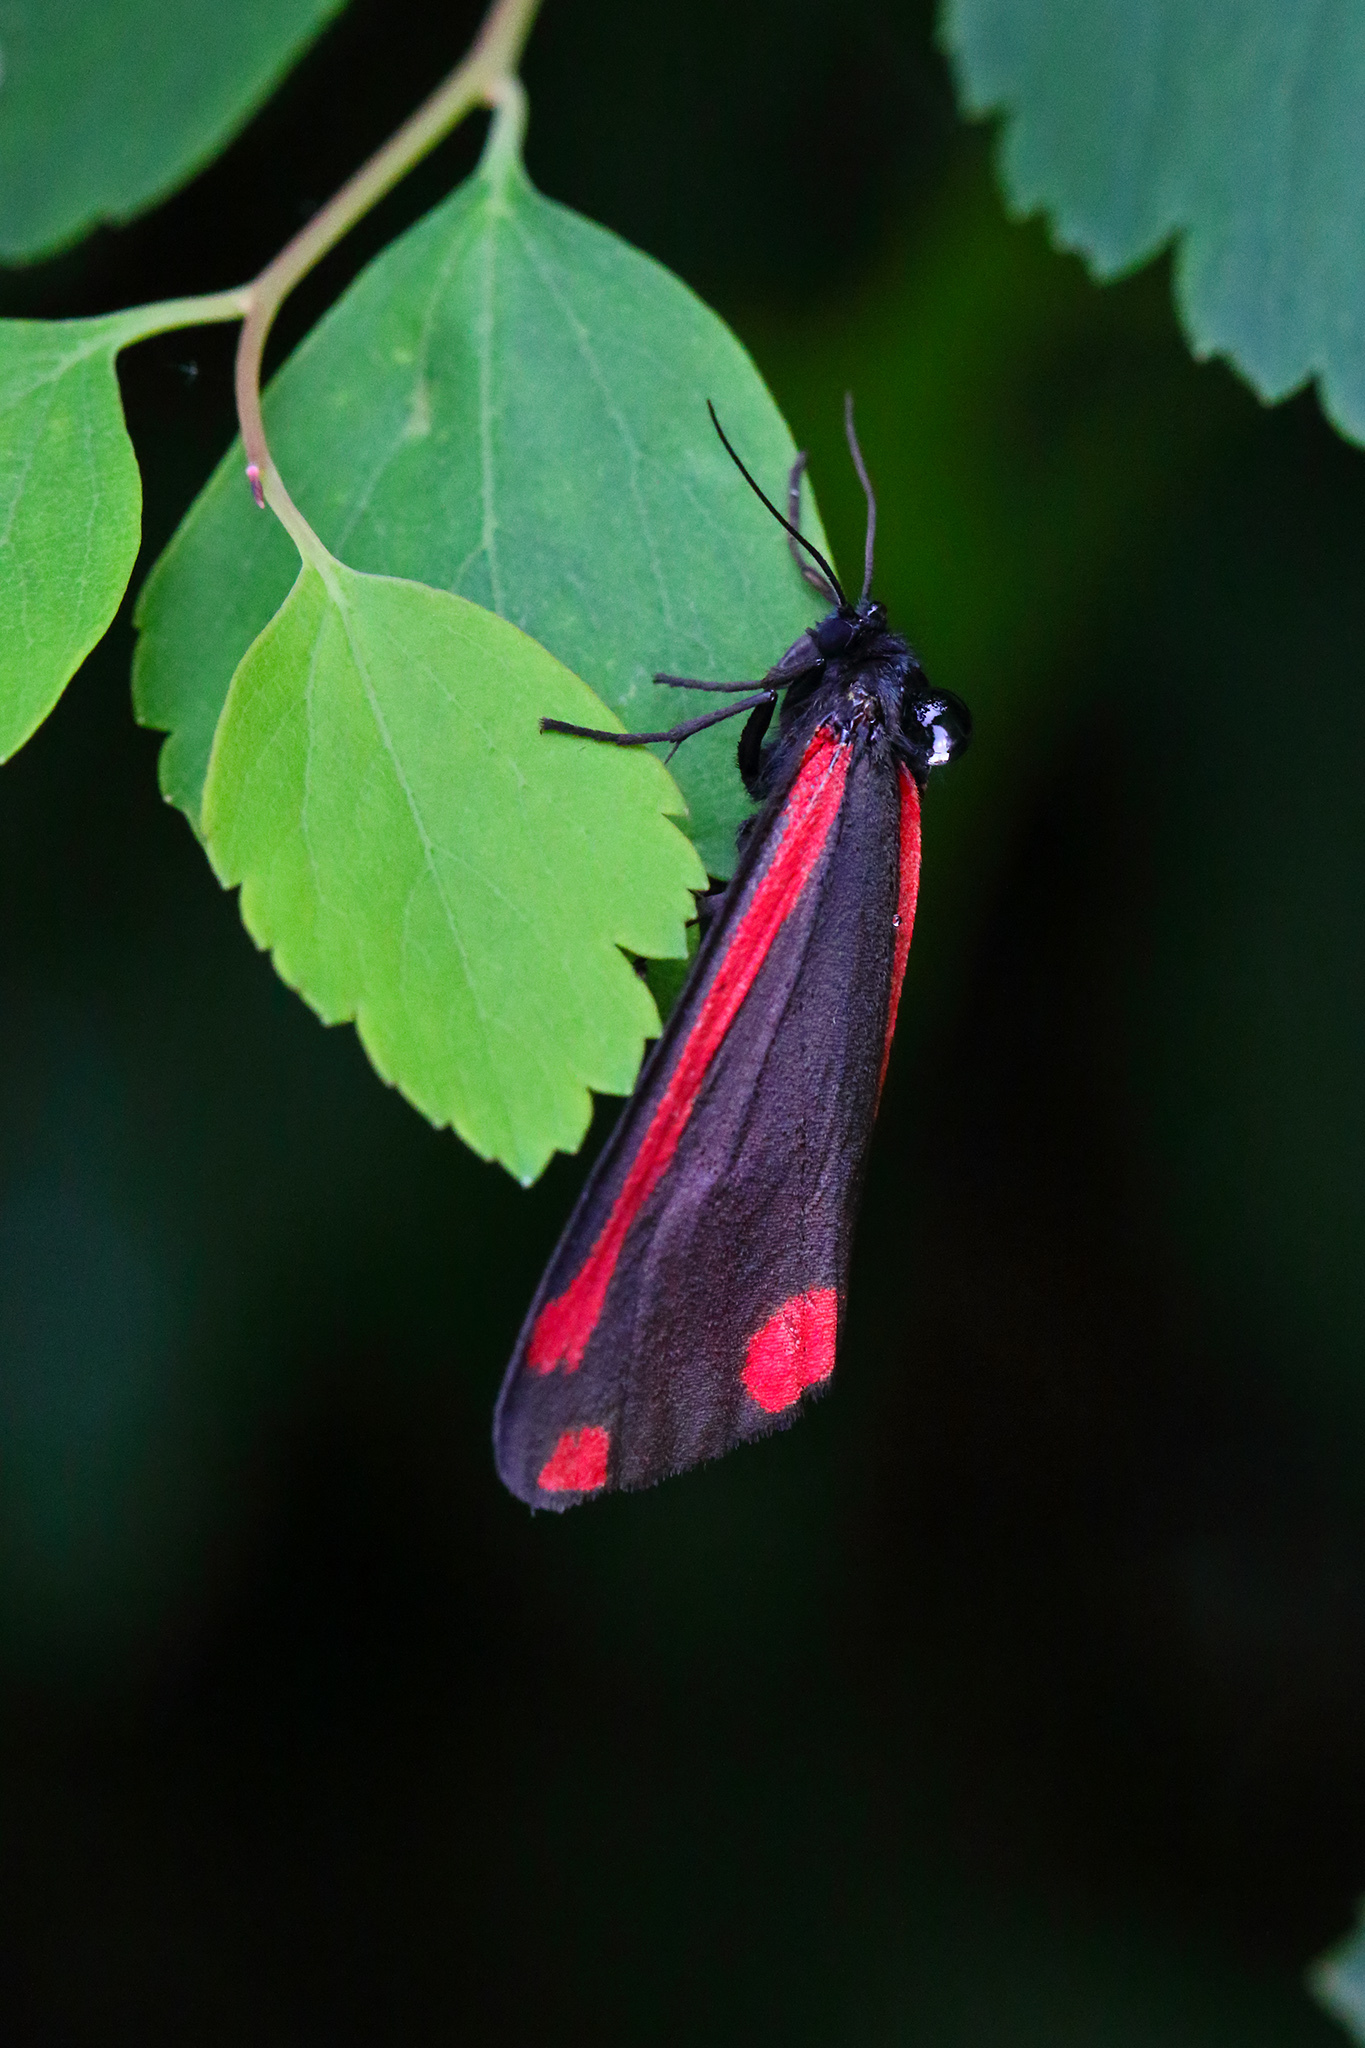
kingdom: Animalia
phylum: Arthropoda
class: Insecta
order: Lepidoptera
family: Erebidae
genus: Tyria
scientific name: Tyria jacobaeae
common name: Cinnabar
